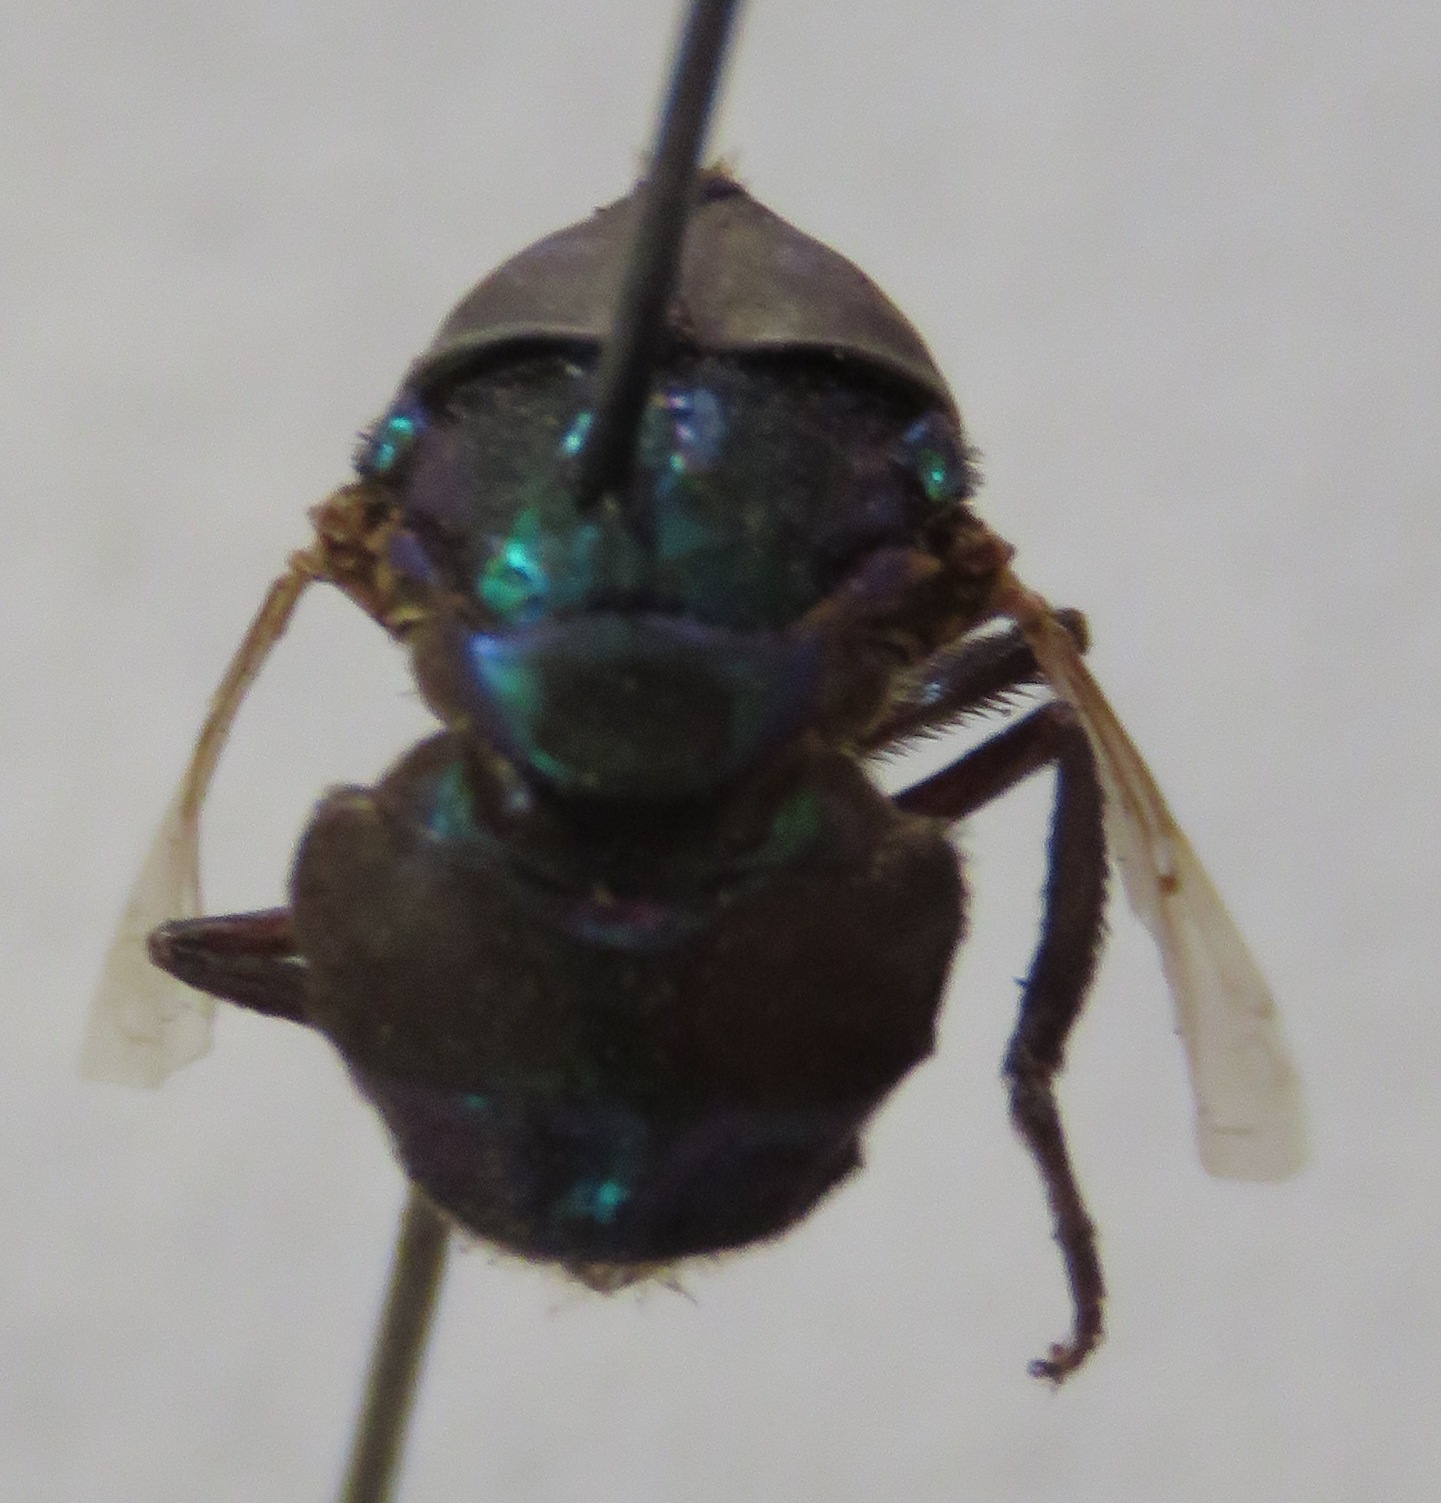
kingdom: Animalia
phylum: Arthropoda
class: Insecta
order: Diptera
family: Syrphidae
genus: Ornidia
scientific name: Ornidia obesa
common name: Syrphid fly
